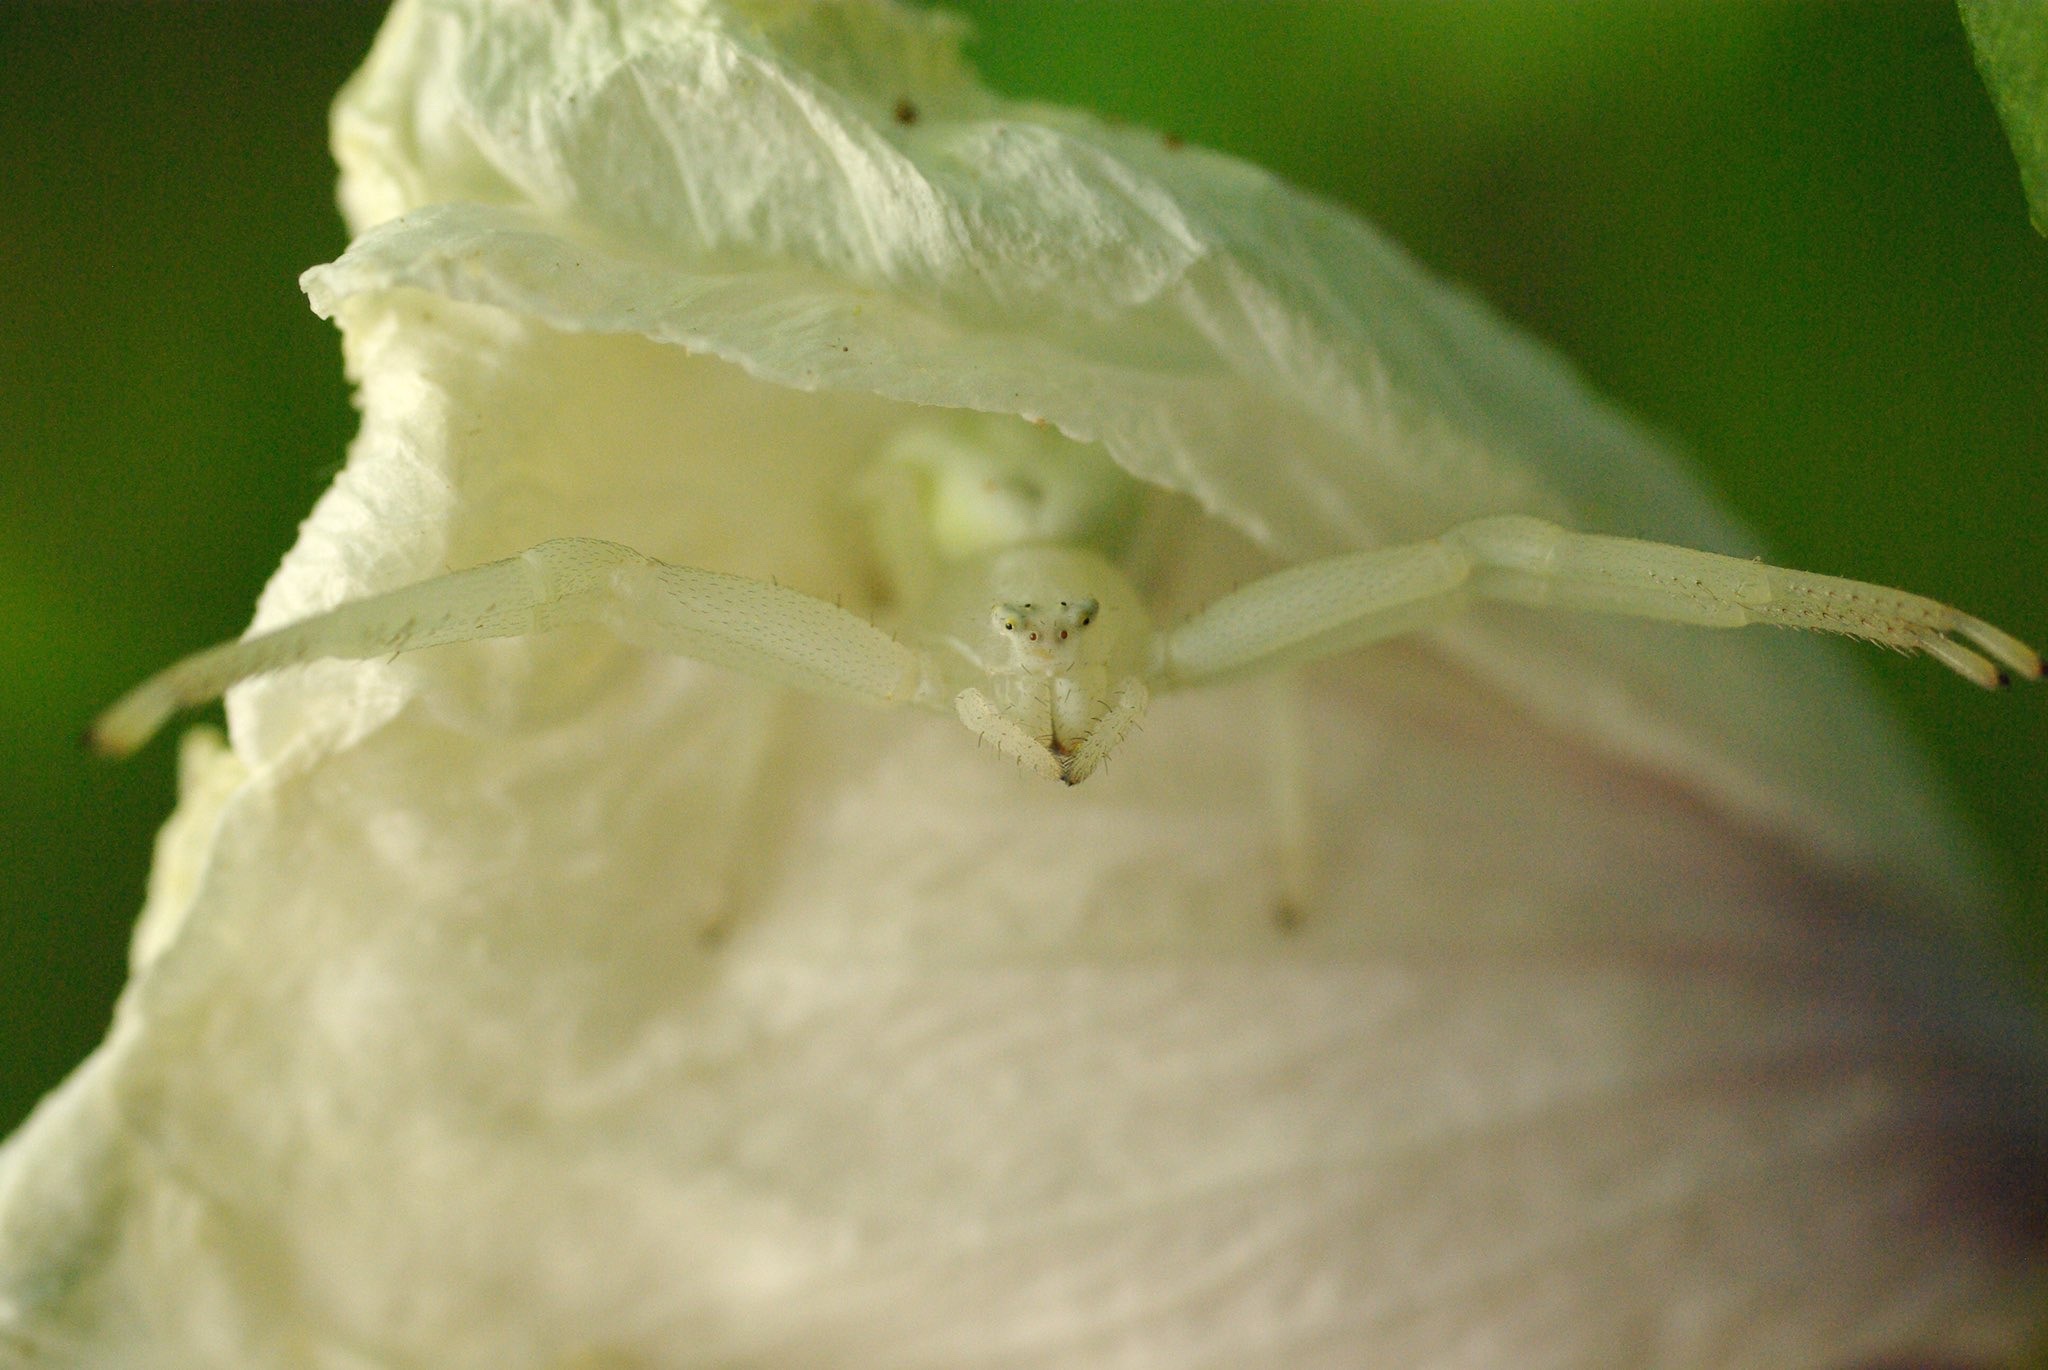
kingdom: Animalia
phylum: Arthropoda
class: Arachnida
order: Araneae
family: Thomisidae
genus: Misumena
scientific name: Misumena vatia
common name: Goldenrod crab spider
